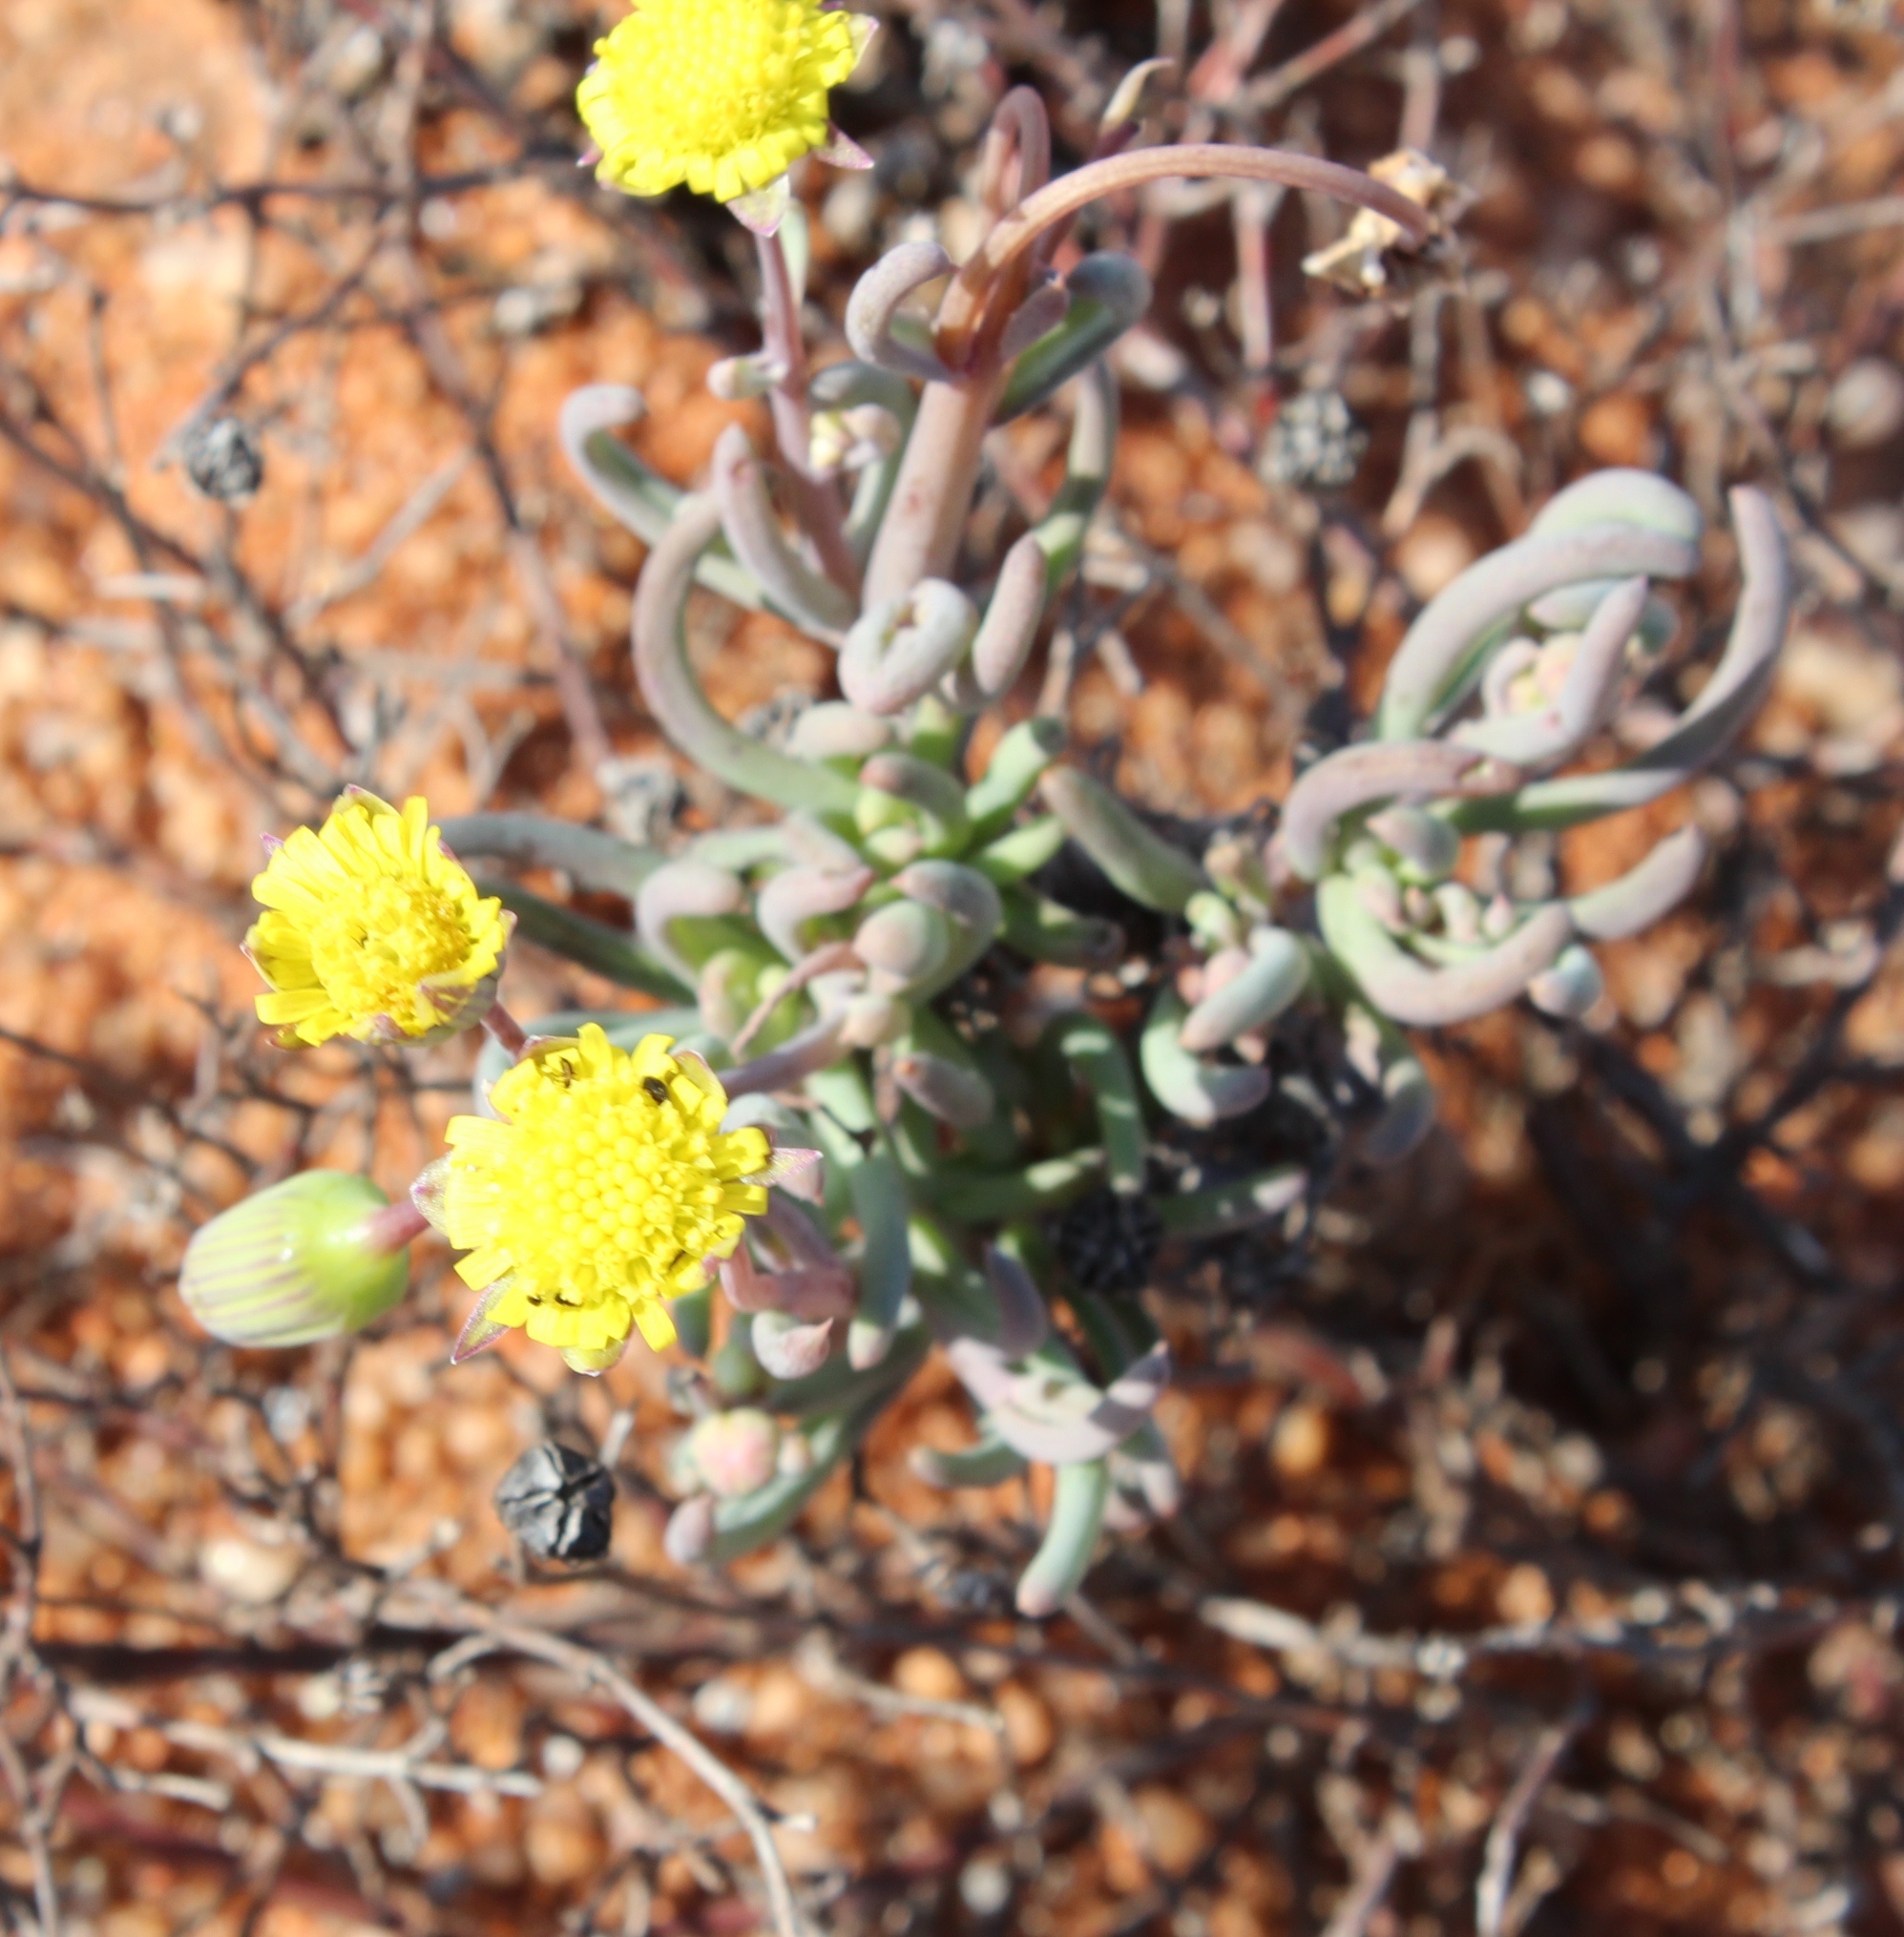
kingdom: Plantae
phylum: Tracheophyta
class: Magnoliopsida
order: Asterales
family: Asteraceae
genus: Crassothonna
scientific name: Crassothonna protecta
